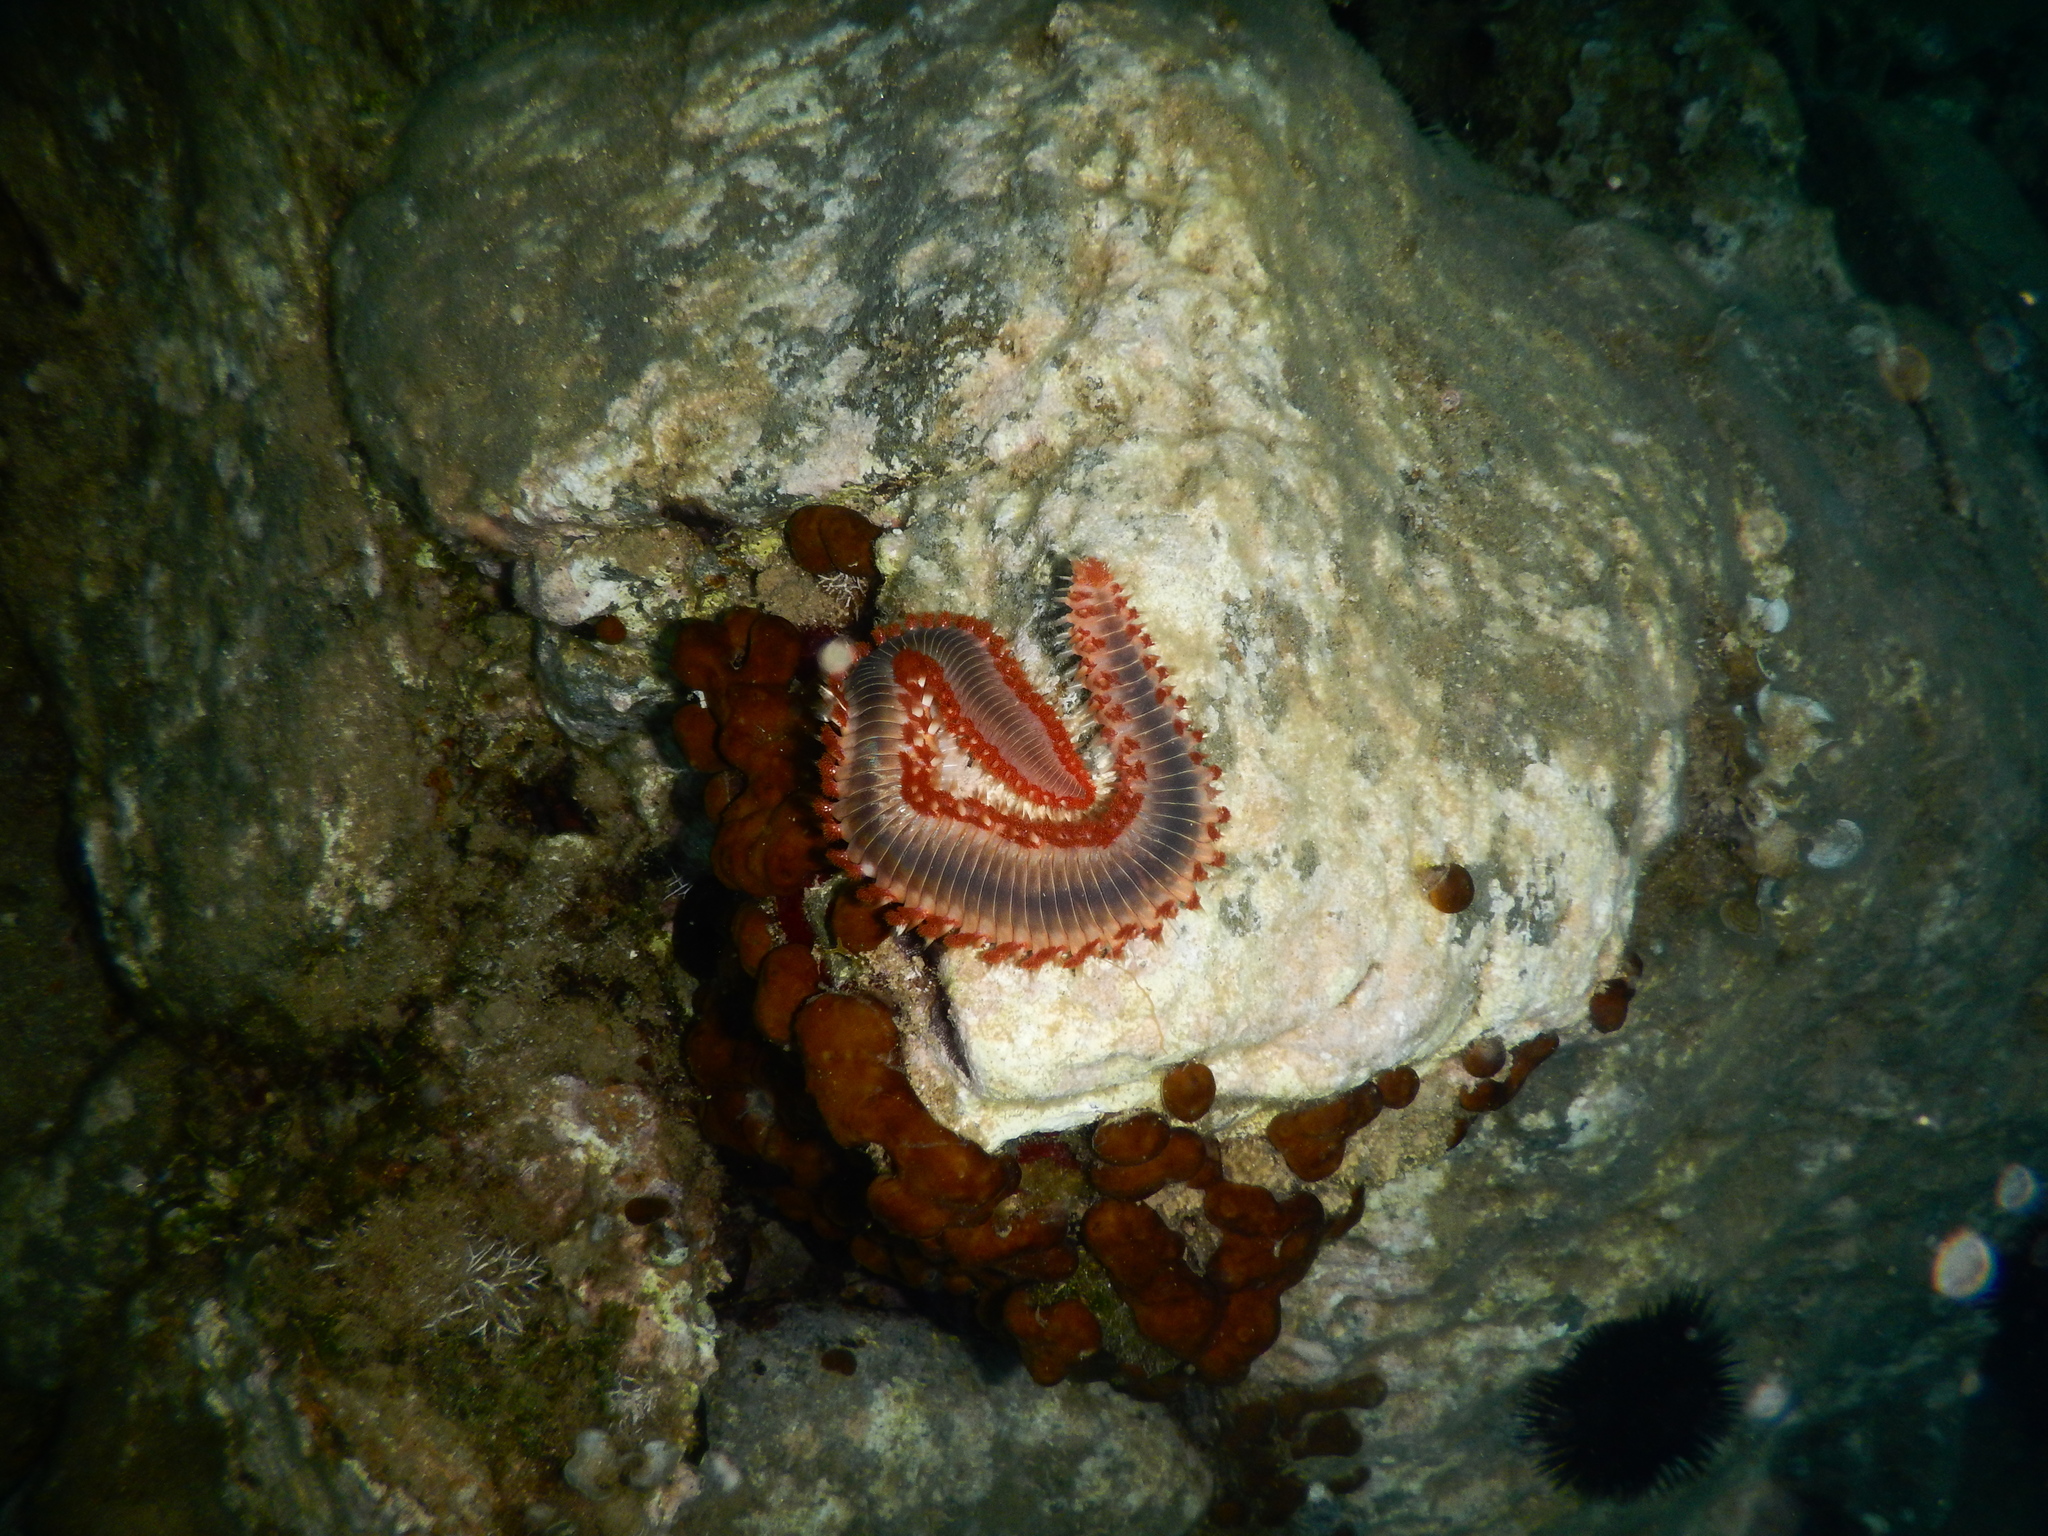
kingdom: Animalia
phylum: Annelida
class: Polychaeta
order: Amphinomida
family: Amphinomidae
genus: Hermodice
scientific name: Hermodice carunculata
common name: Bearded fireworm
